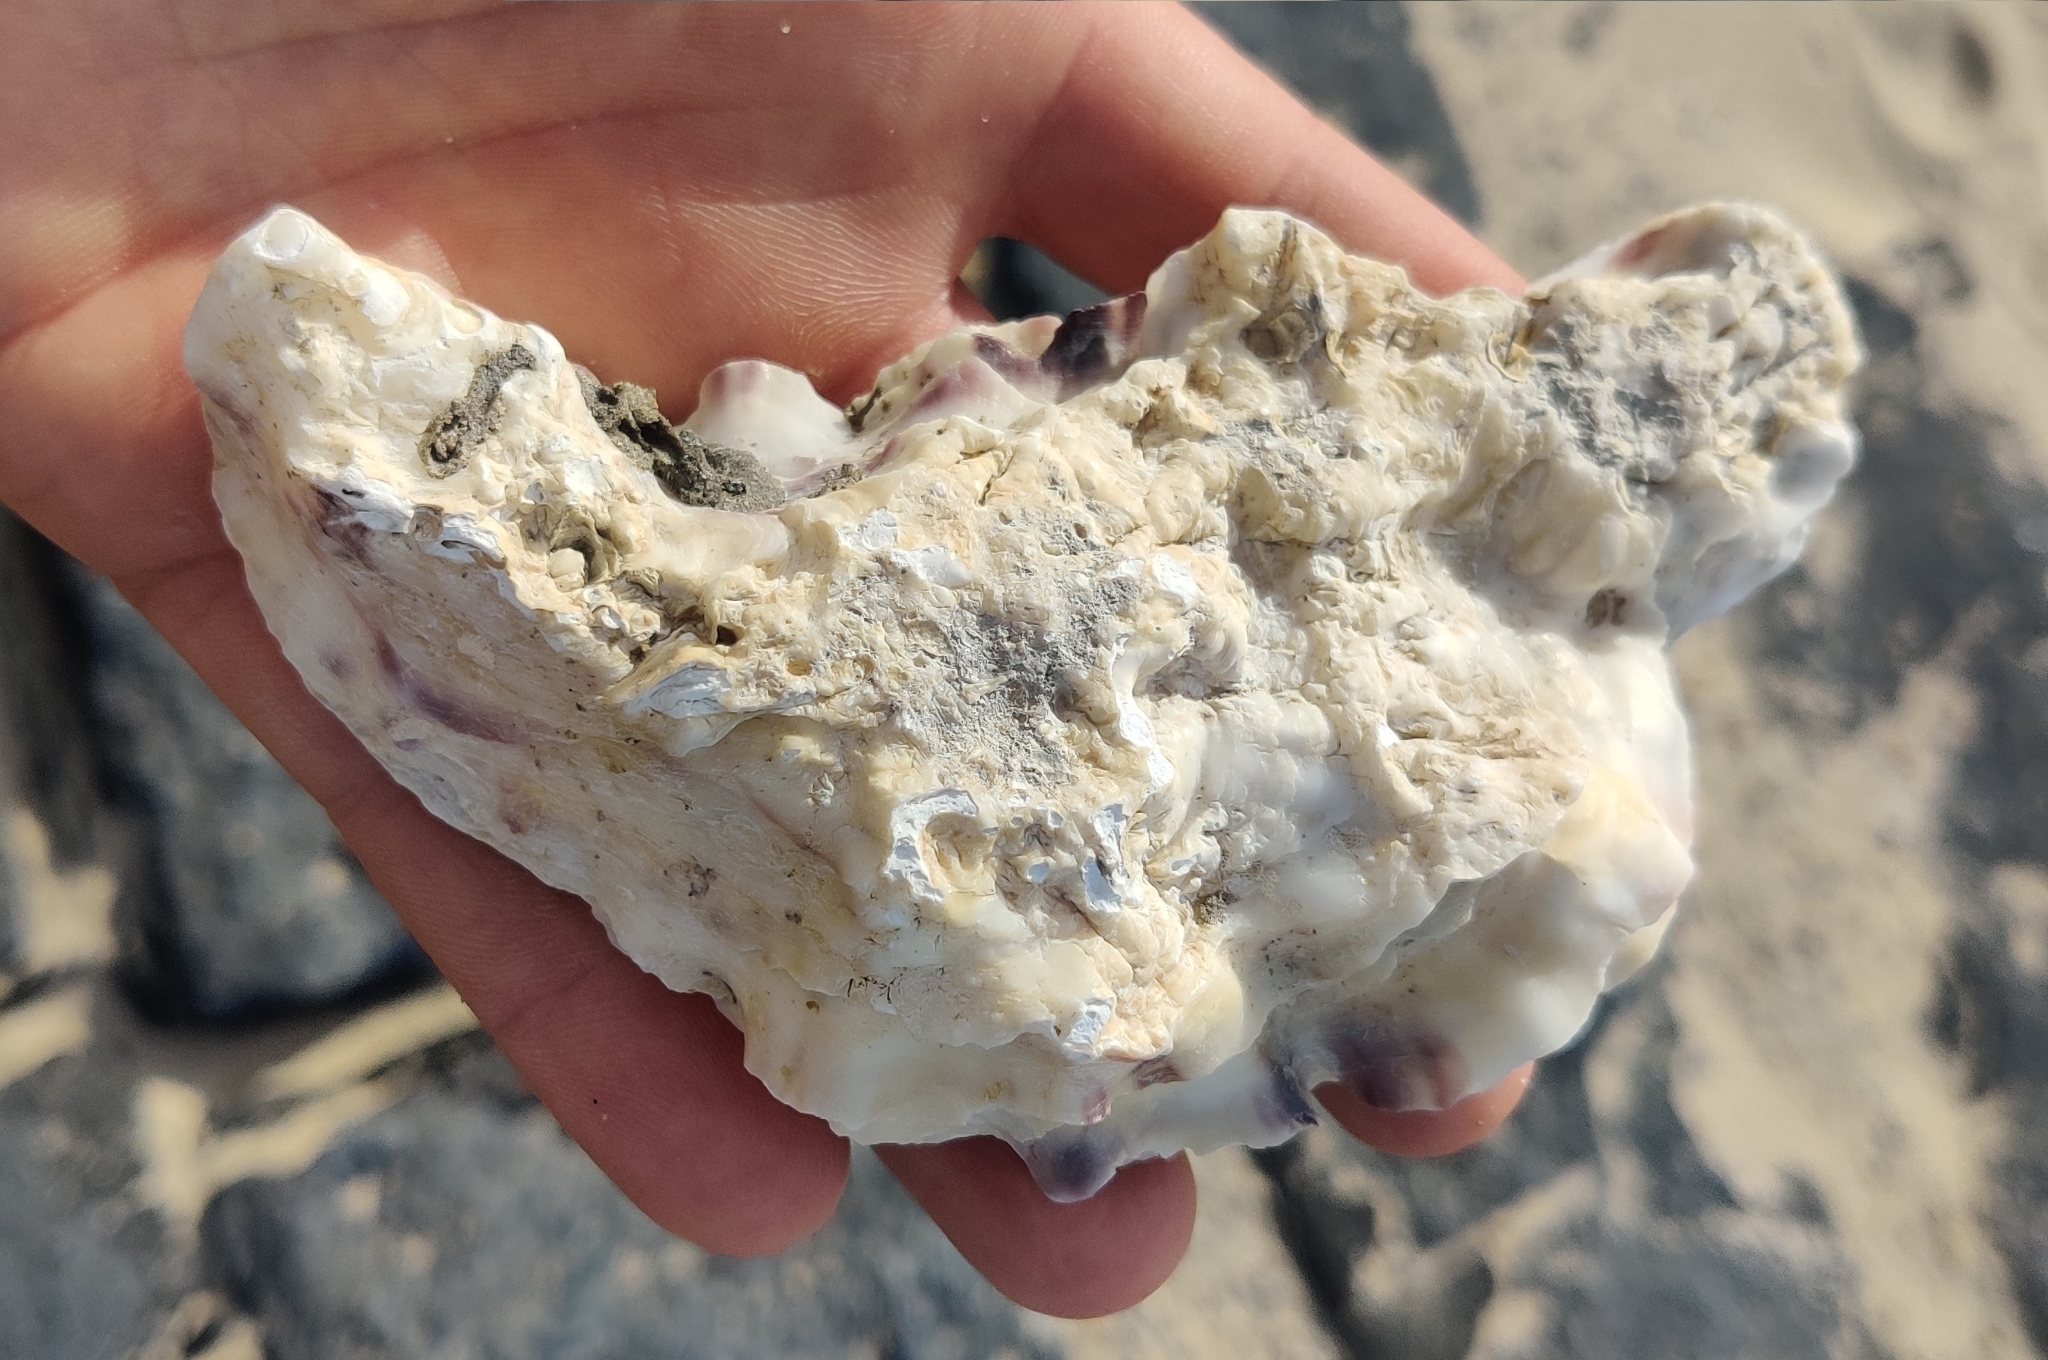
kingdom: Animalia
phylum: Mollusca
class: Bivalvia
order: Ostreida
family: Ostreidae
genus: Magallana
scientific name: Magallana gigas
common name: Pacific oyster
